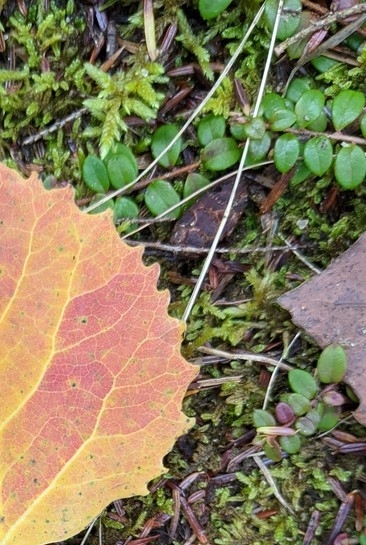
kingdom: Plantae
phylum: Tracheophyta
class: Magnoliopsida
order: Ericales
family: Ericaceae
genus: Gaultheria
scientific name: Gaultheria hispidula
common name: Cancer wintergreen
